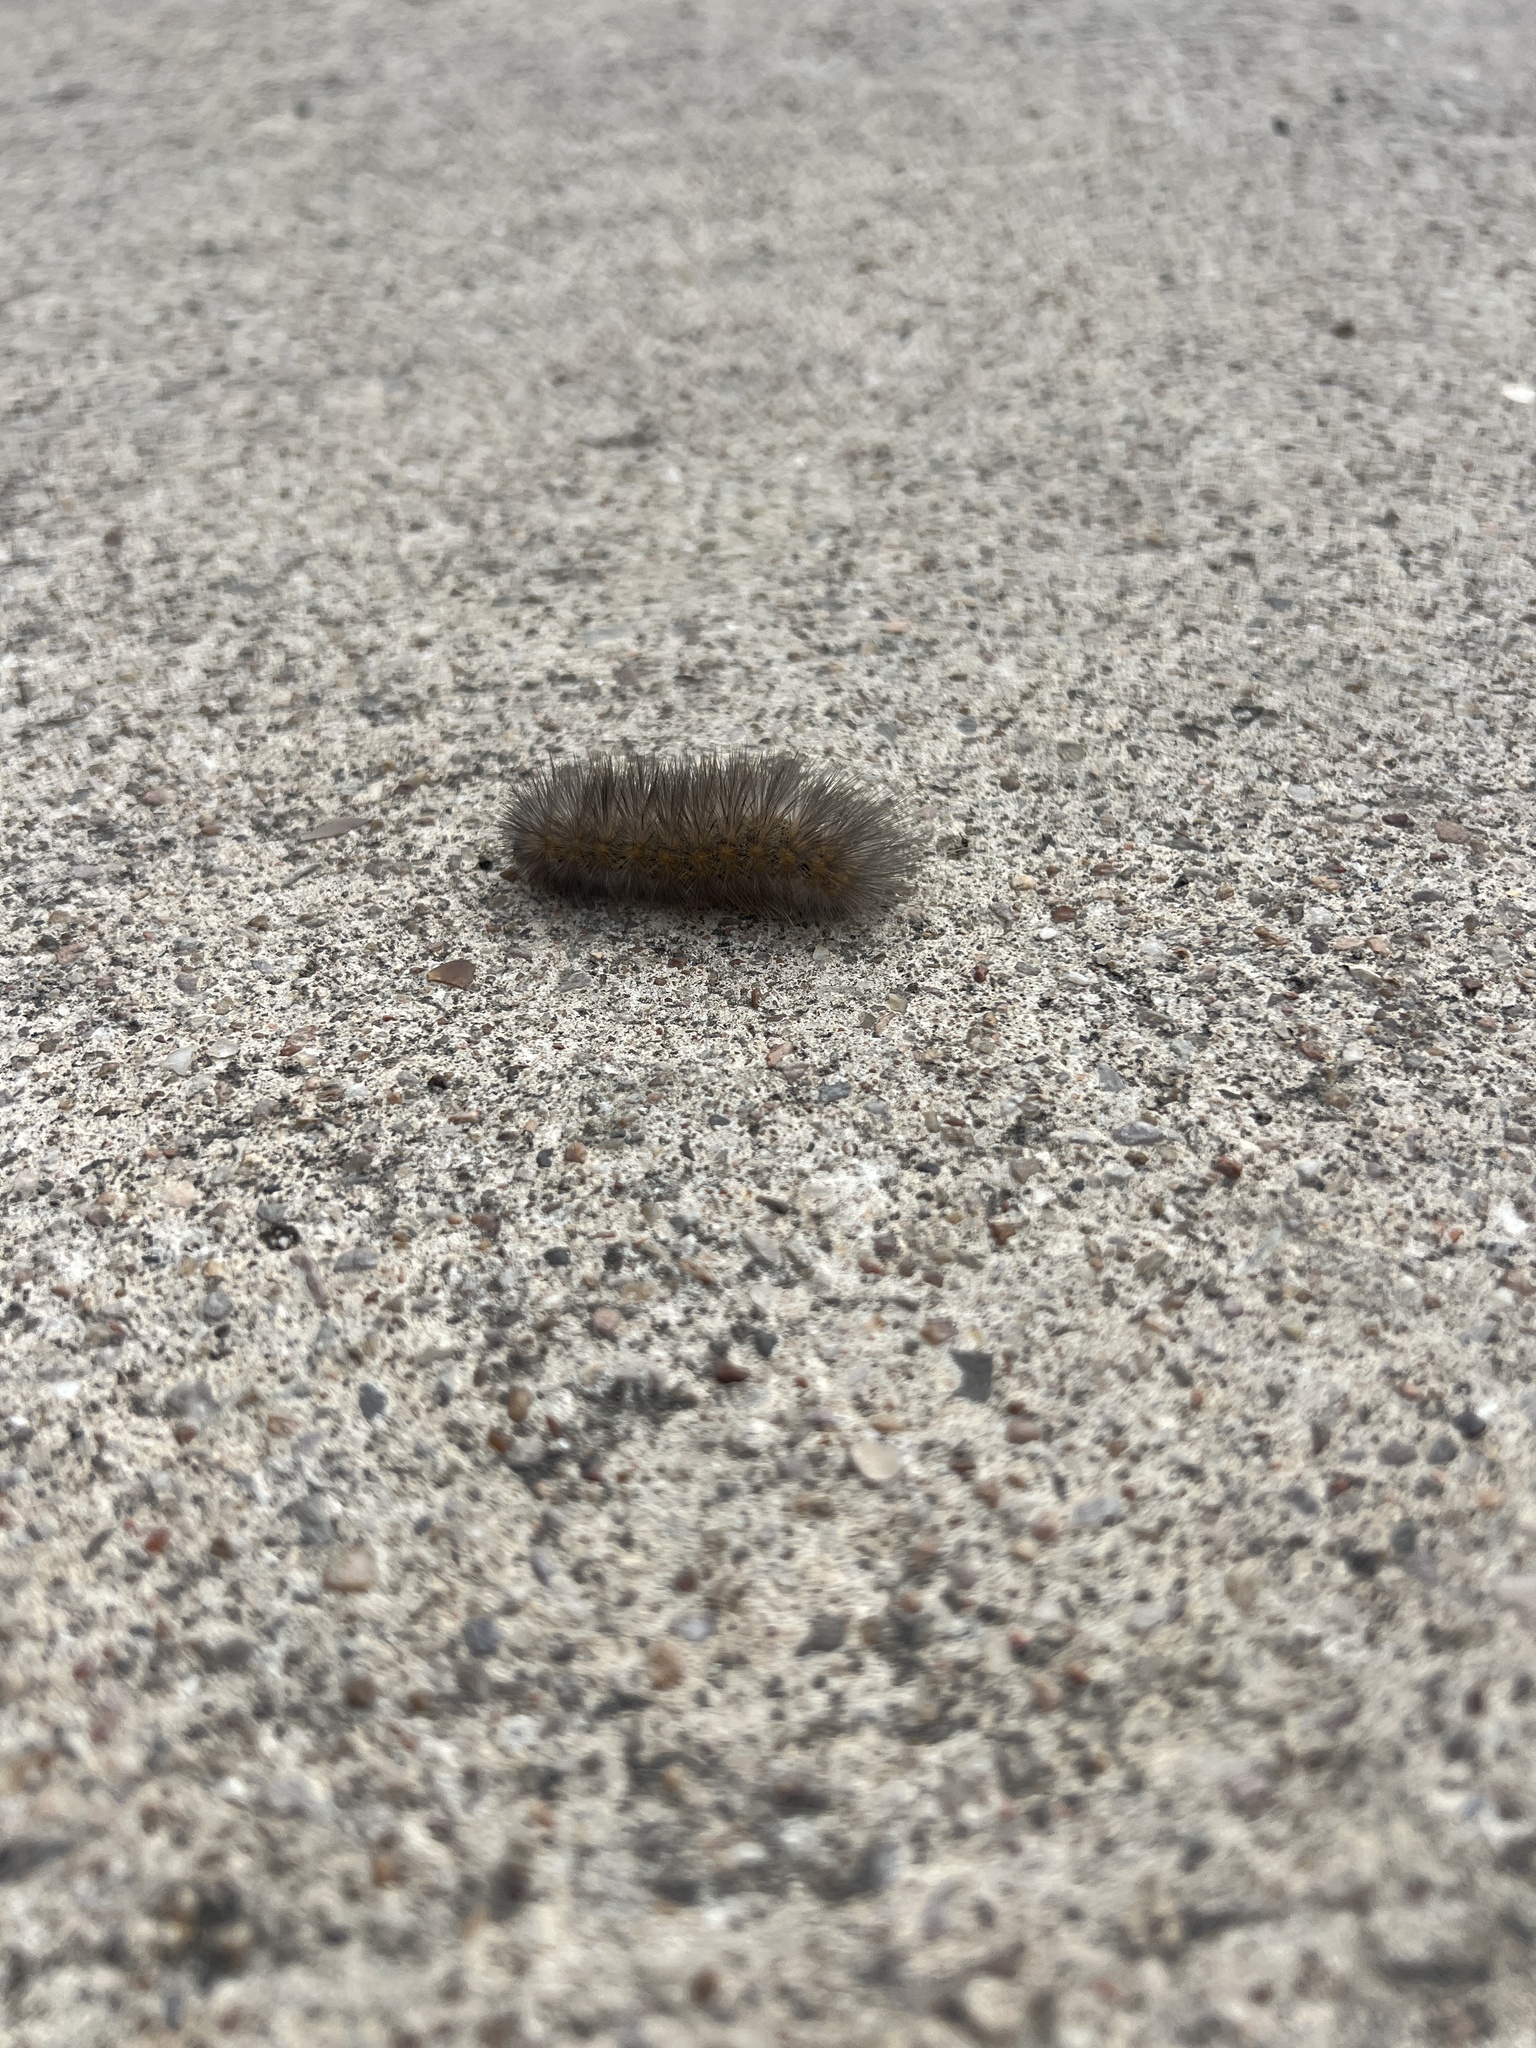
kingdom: Animalia
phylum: Arthropoda
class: Insecta
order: Lepidoptera
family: Erebidae
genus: Estigmene
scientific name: Estigmene acrea
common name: Salt marsh moth
